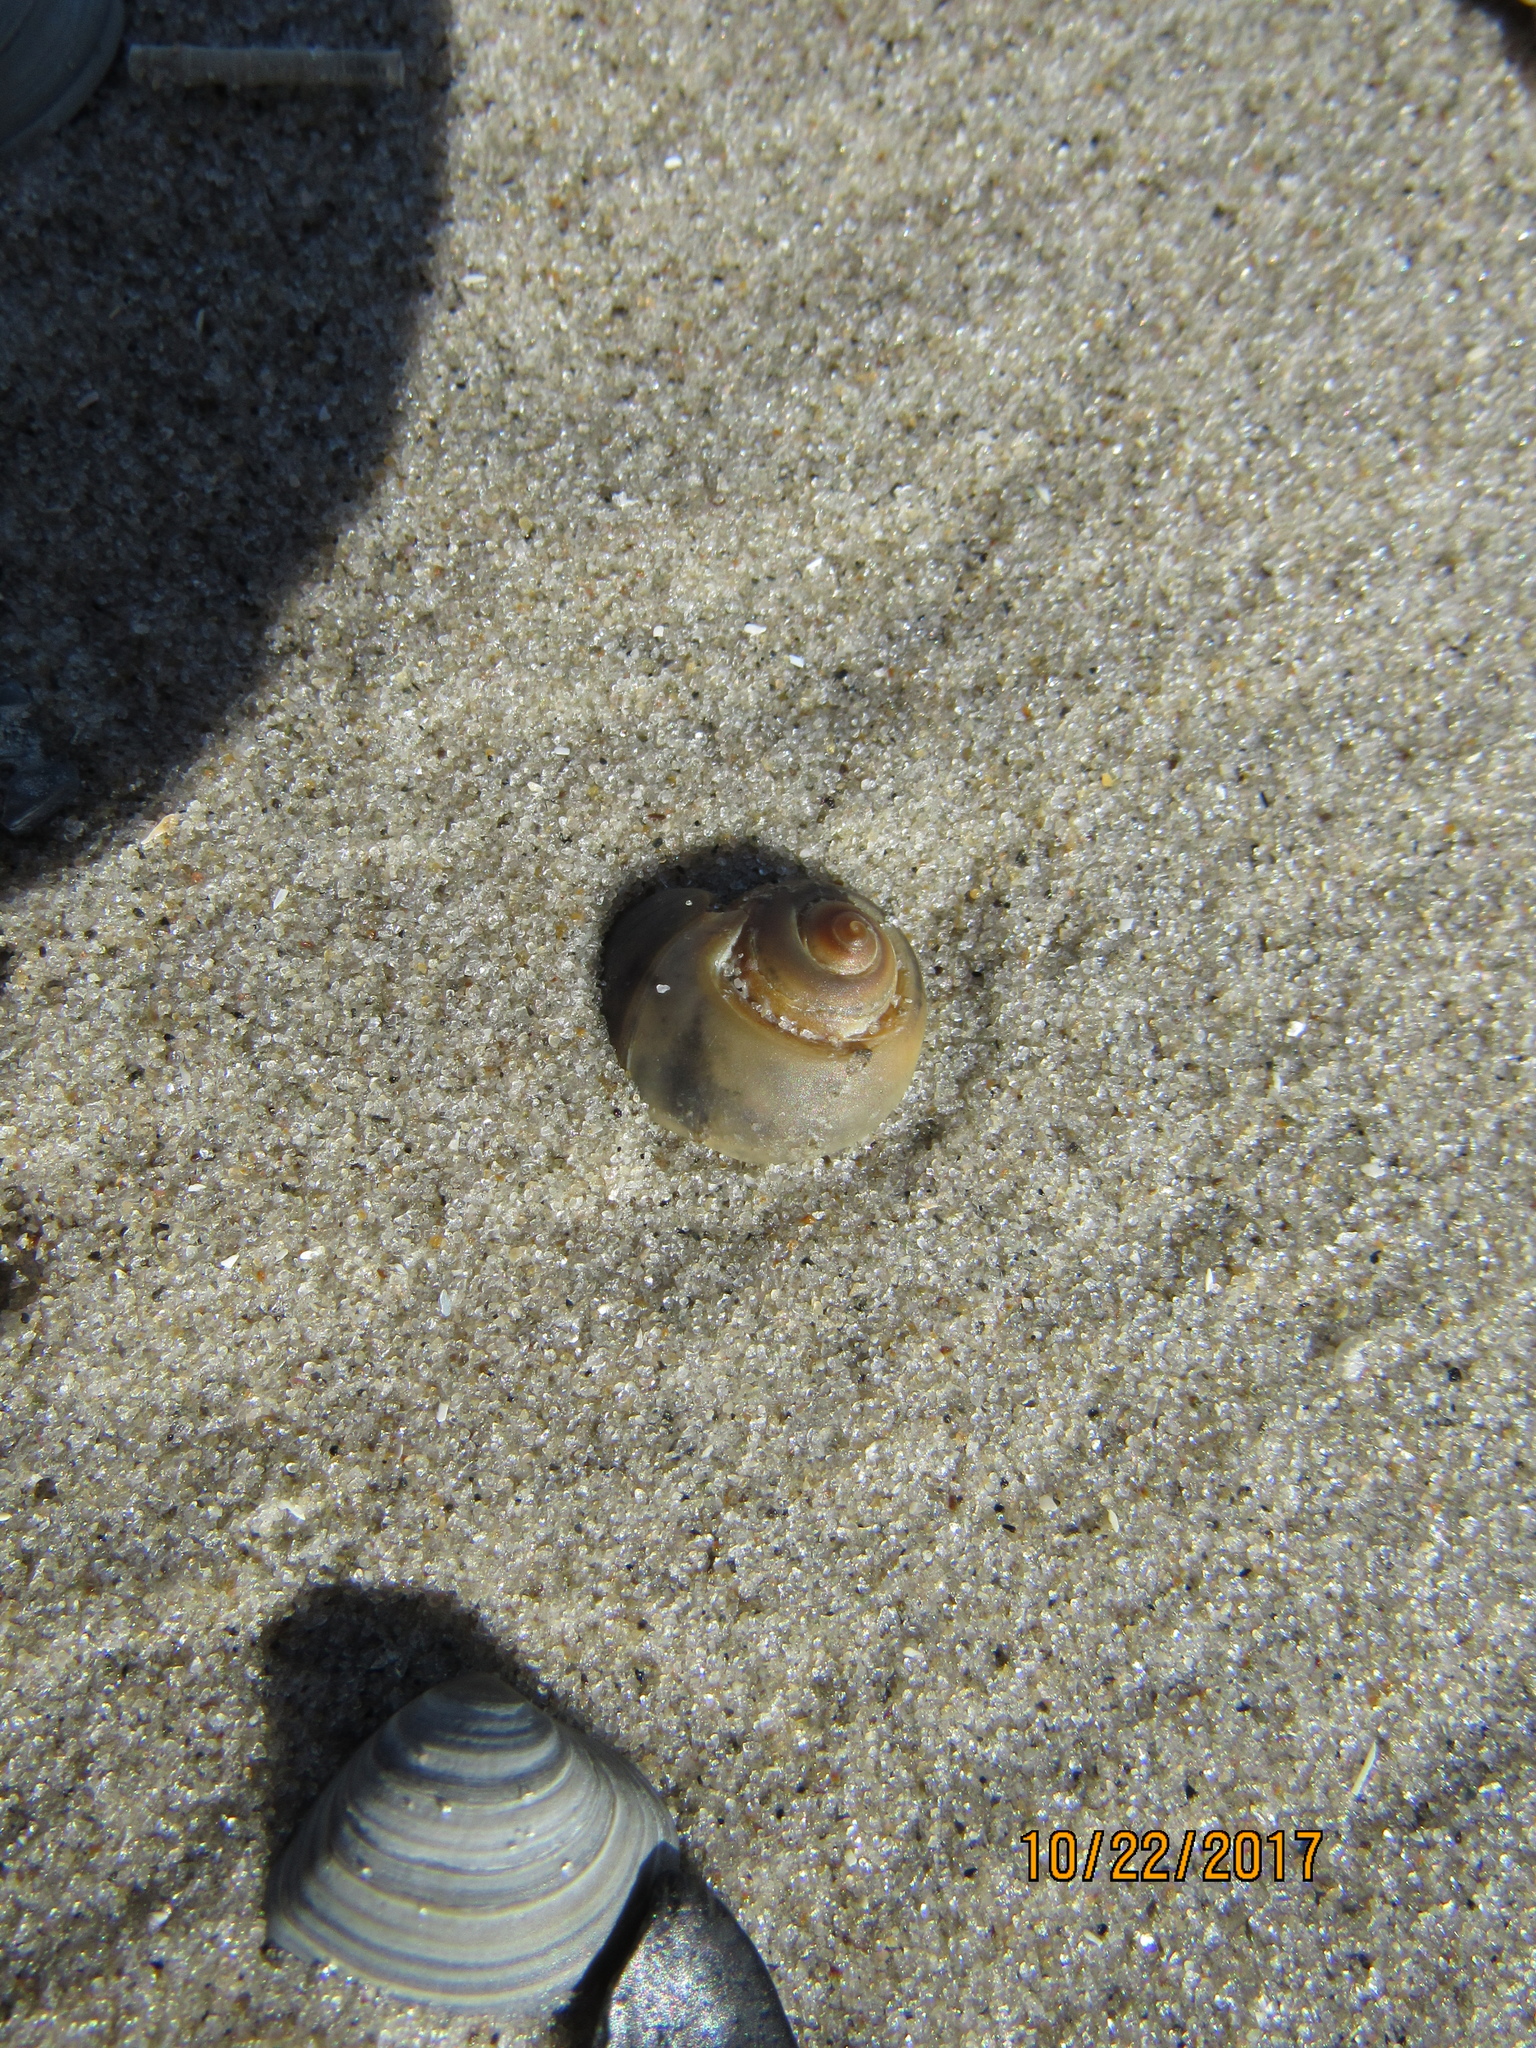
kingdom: Animalia
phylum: Mollusca
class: Gastropoda
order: Littorinimorpha
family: Naticidae
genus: Neverita
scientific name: Neverita duplicata
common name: Lobed moonsnail
